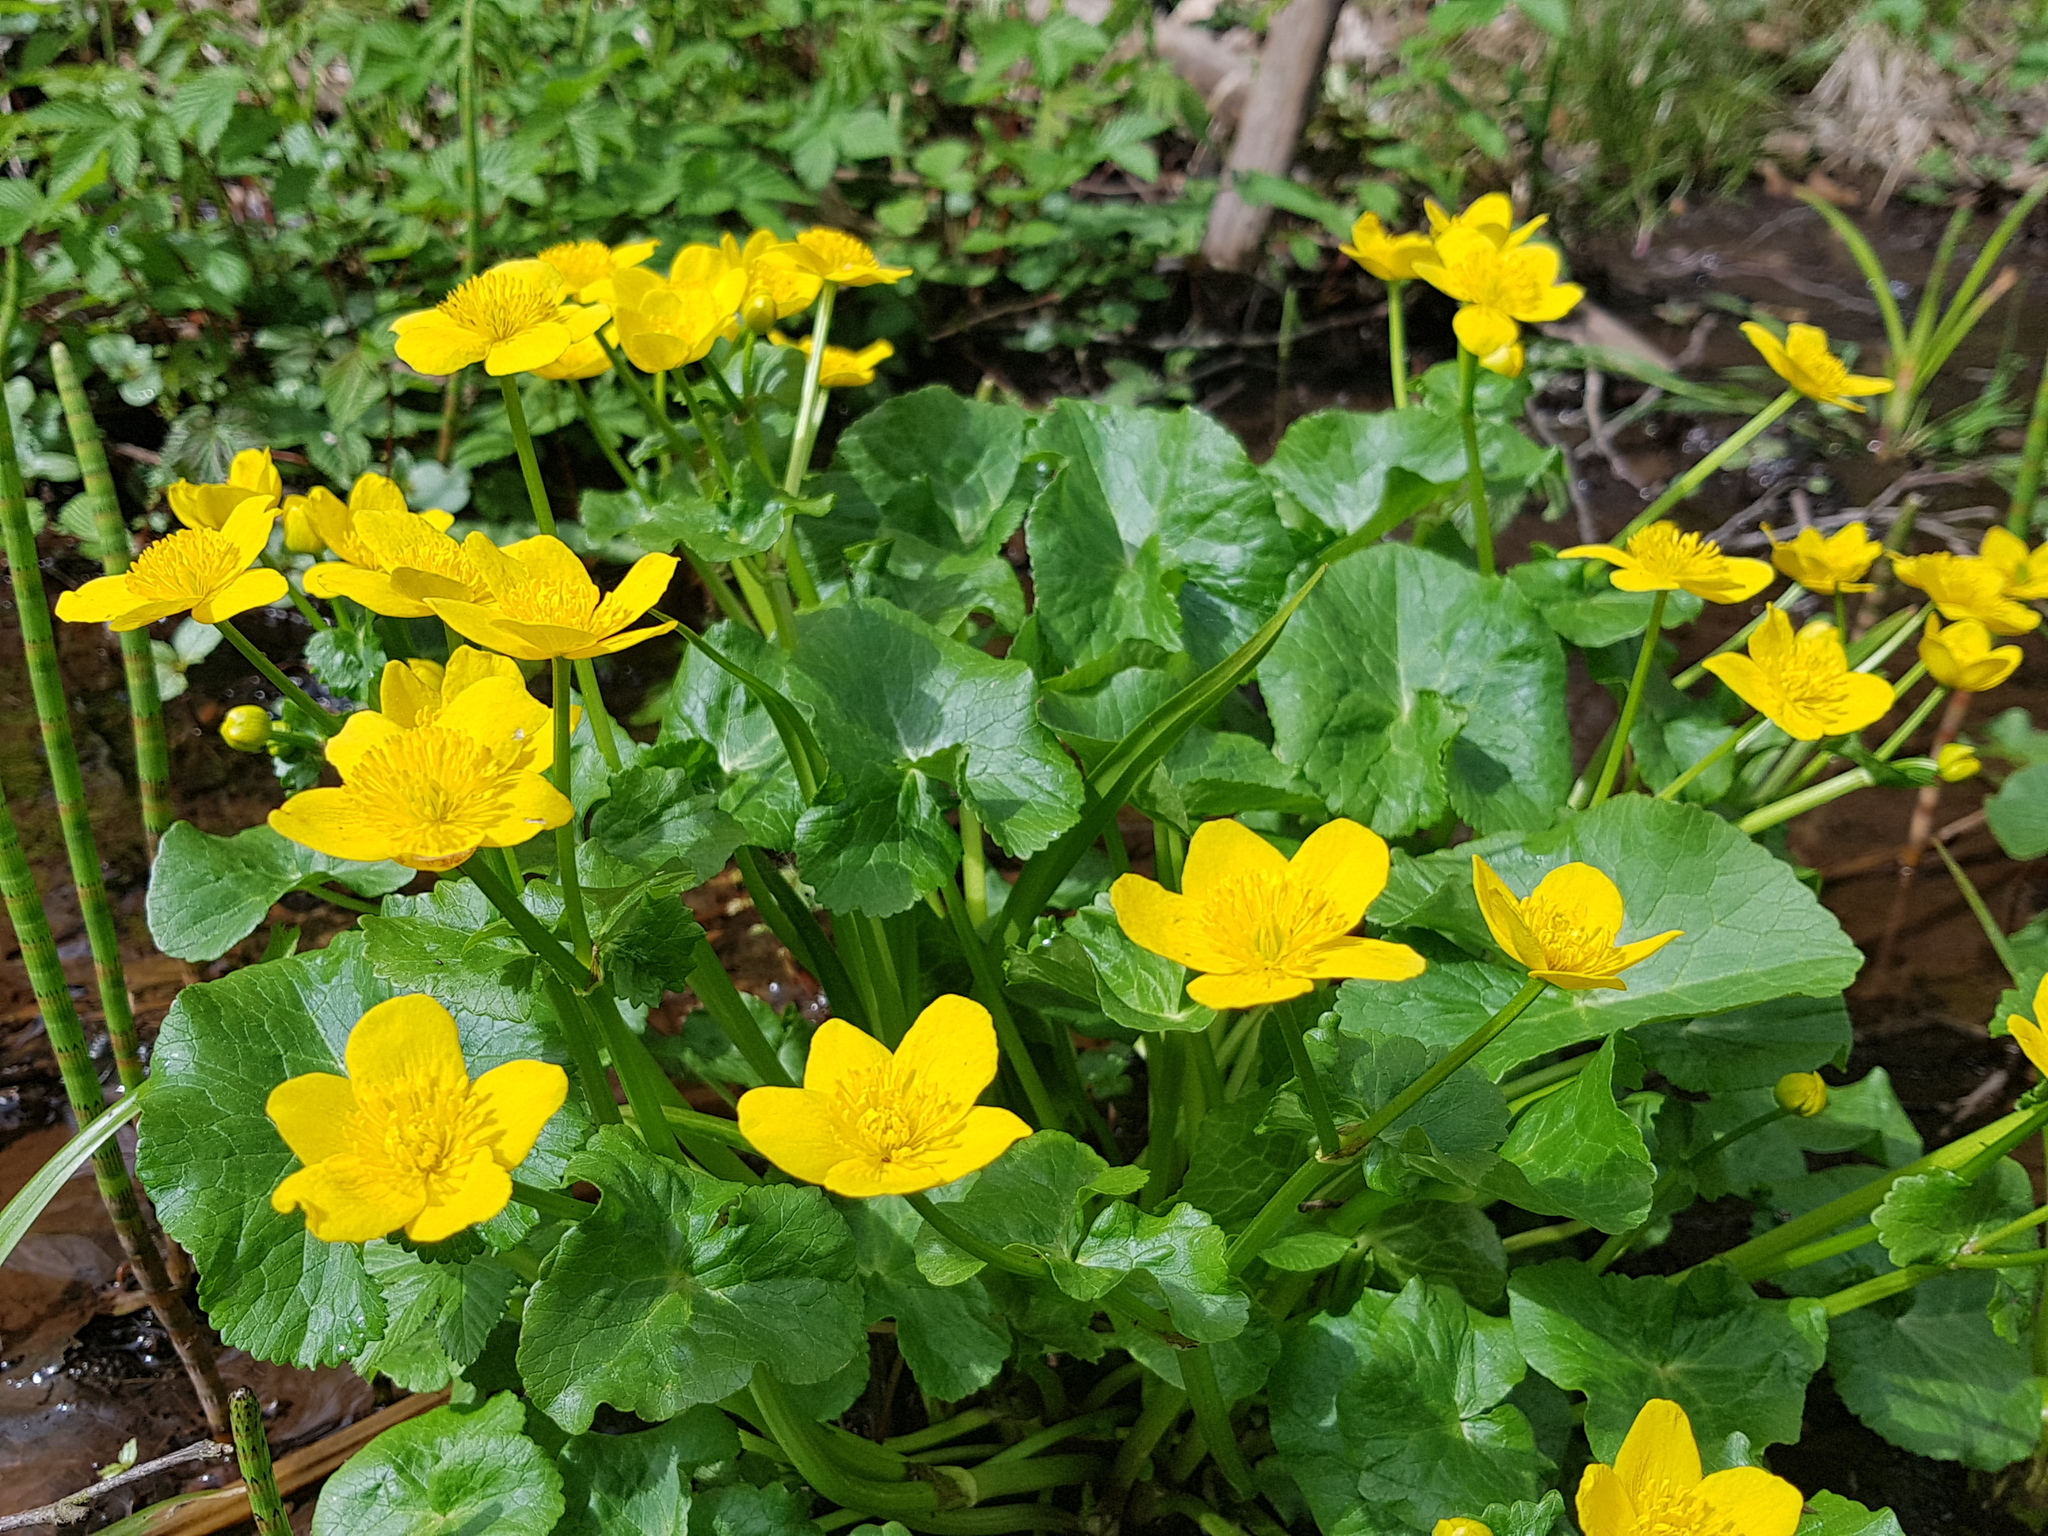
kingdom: Plantae
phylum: Tracheophyta
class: Magnoliopsida
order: Ranunculales
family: Ranunculaceae
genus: Caltha
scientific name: Caltha palustris
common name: Marsh marigold
